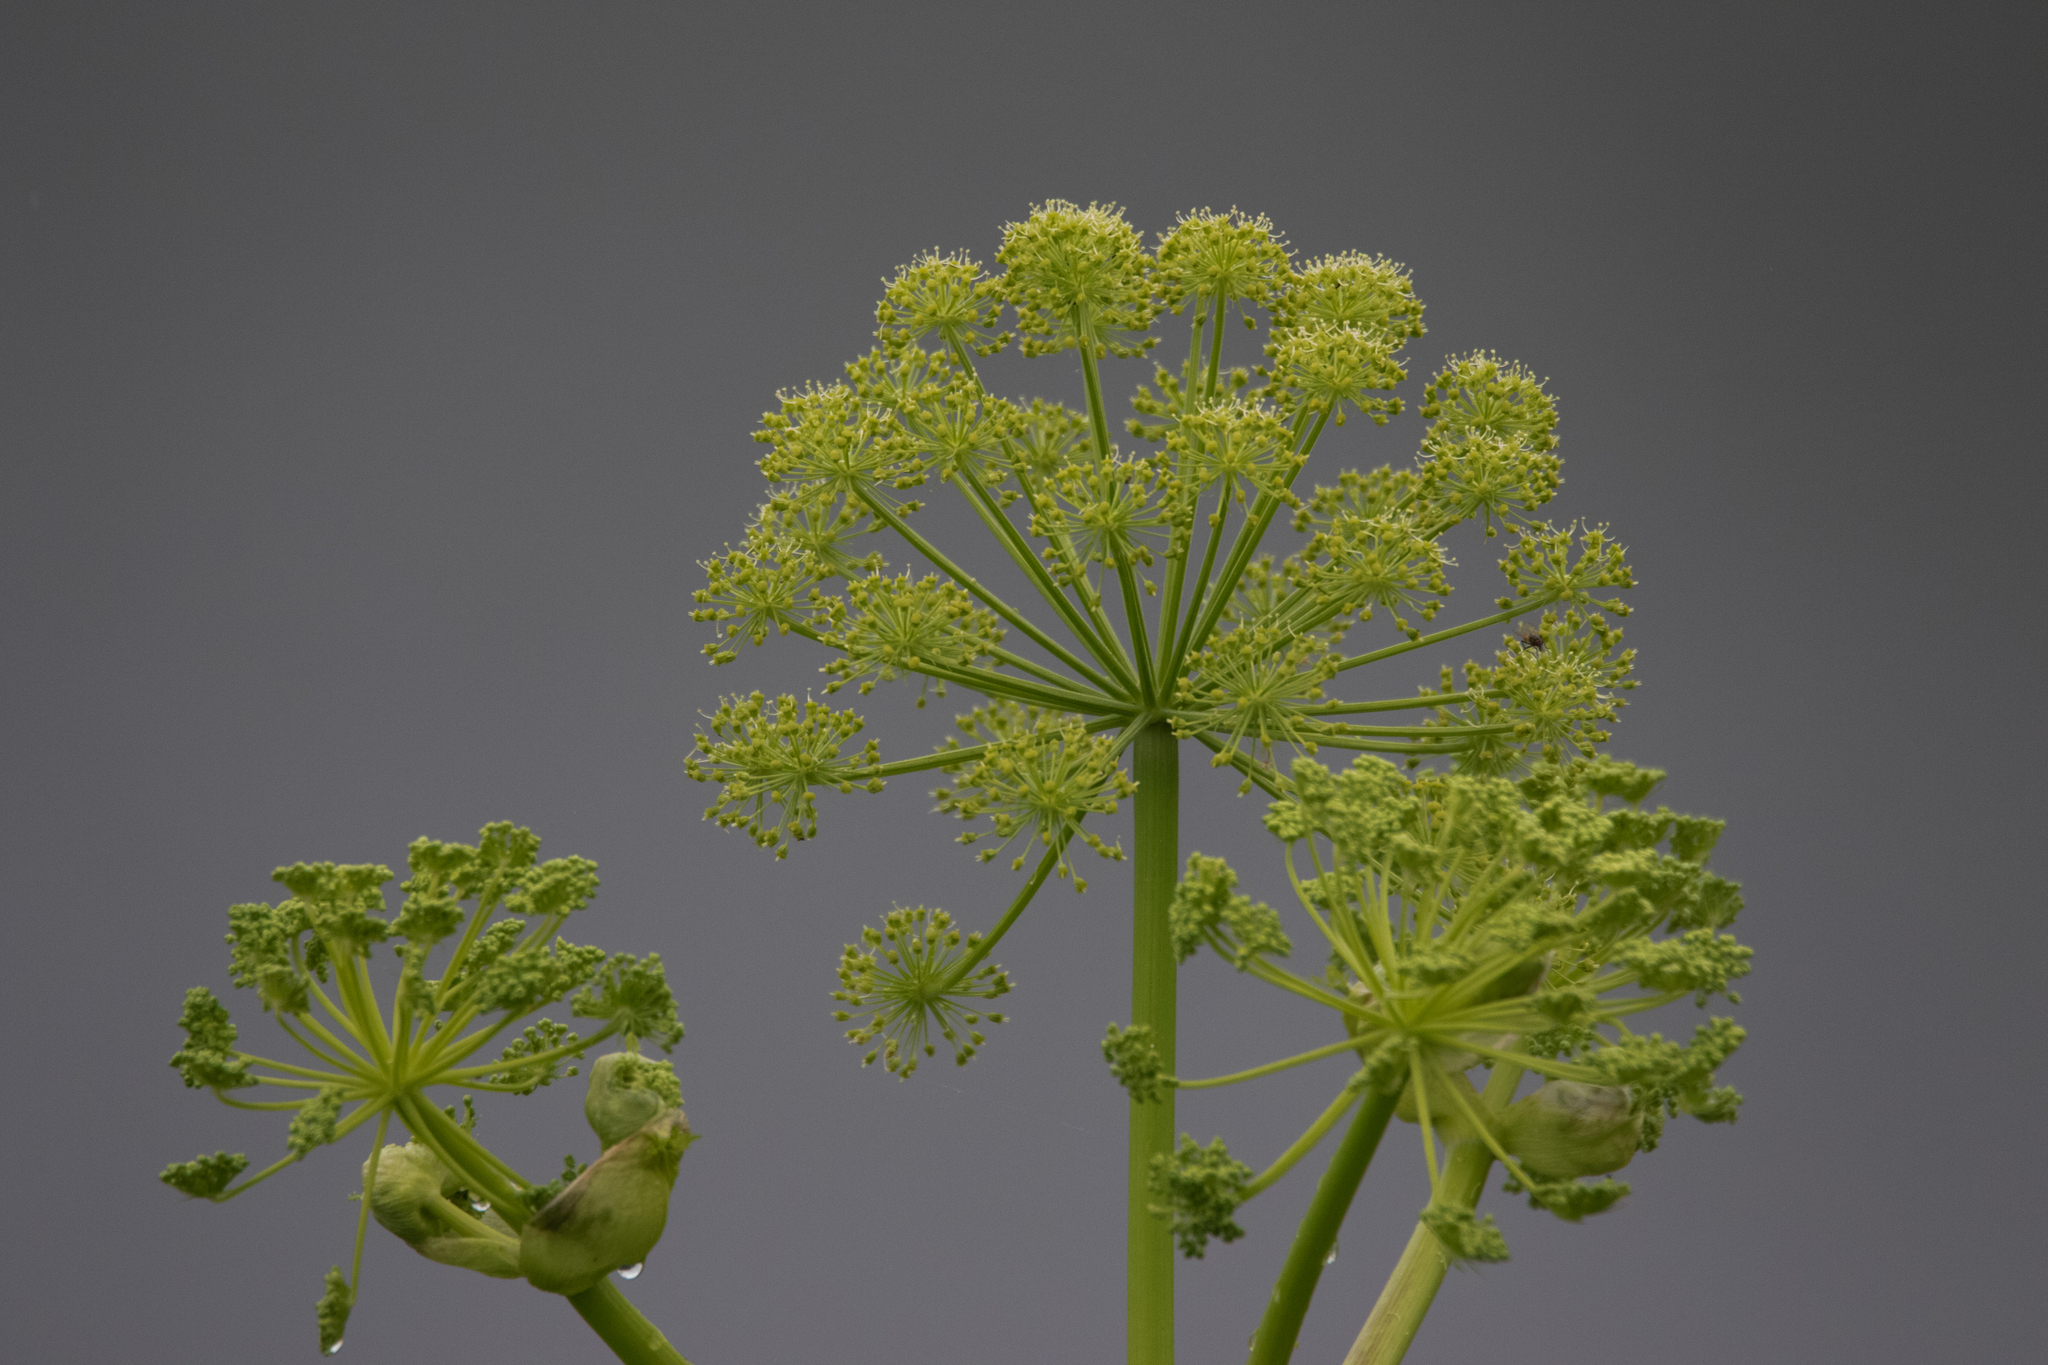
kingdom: Plantae
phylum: Tracheophyta
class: Magnoliopsida
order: Apiales
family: Apiaceae
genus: Angelica
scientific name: Angelica decurrens
